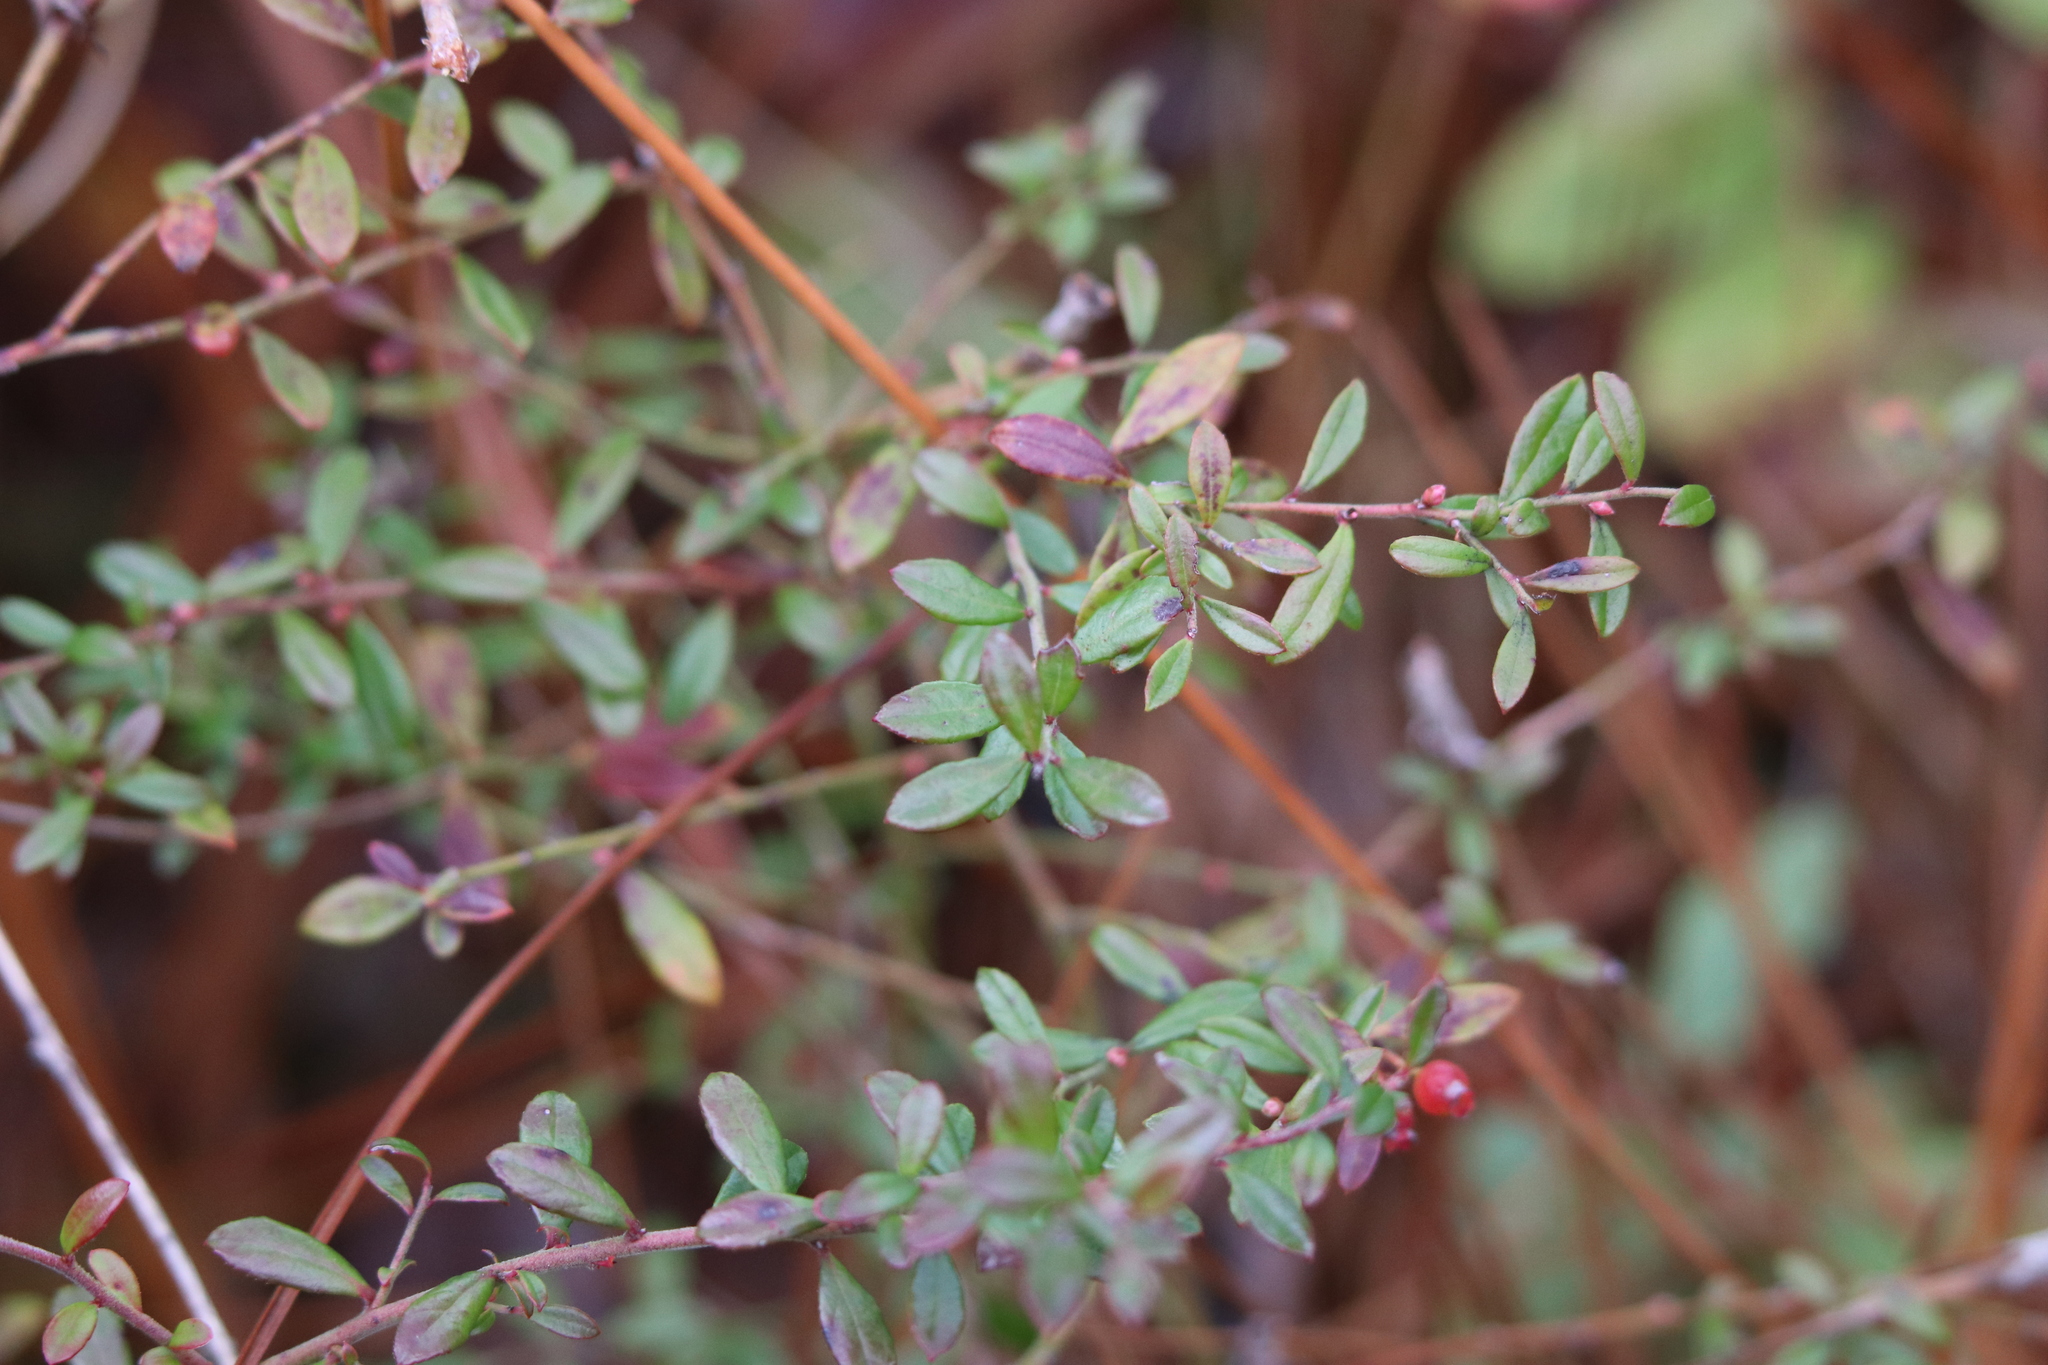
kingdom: Plantae
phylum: Tracheophyta
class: Magnoliopsida
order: Ericales
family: Ericaceae
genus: Vaccinium
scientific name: Vaccinium darrowii
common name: Darrow's blueberry
